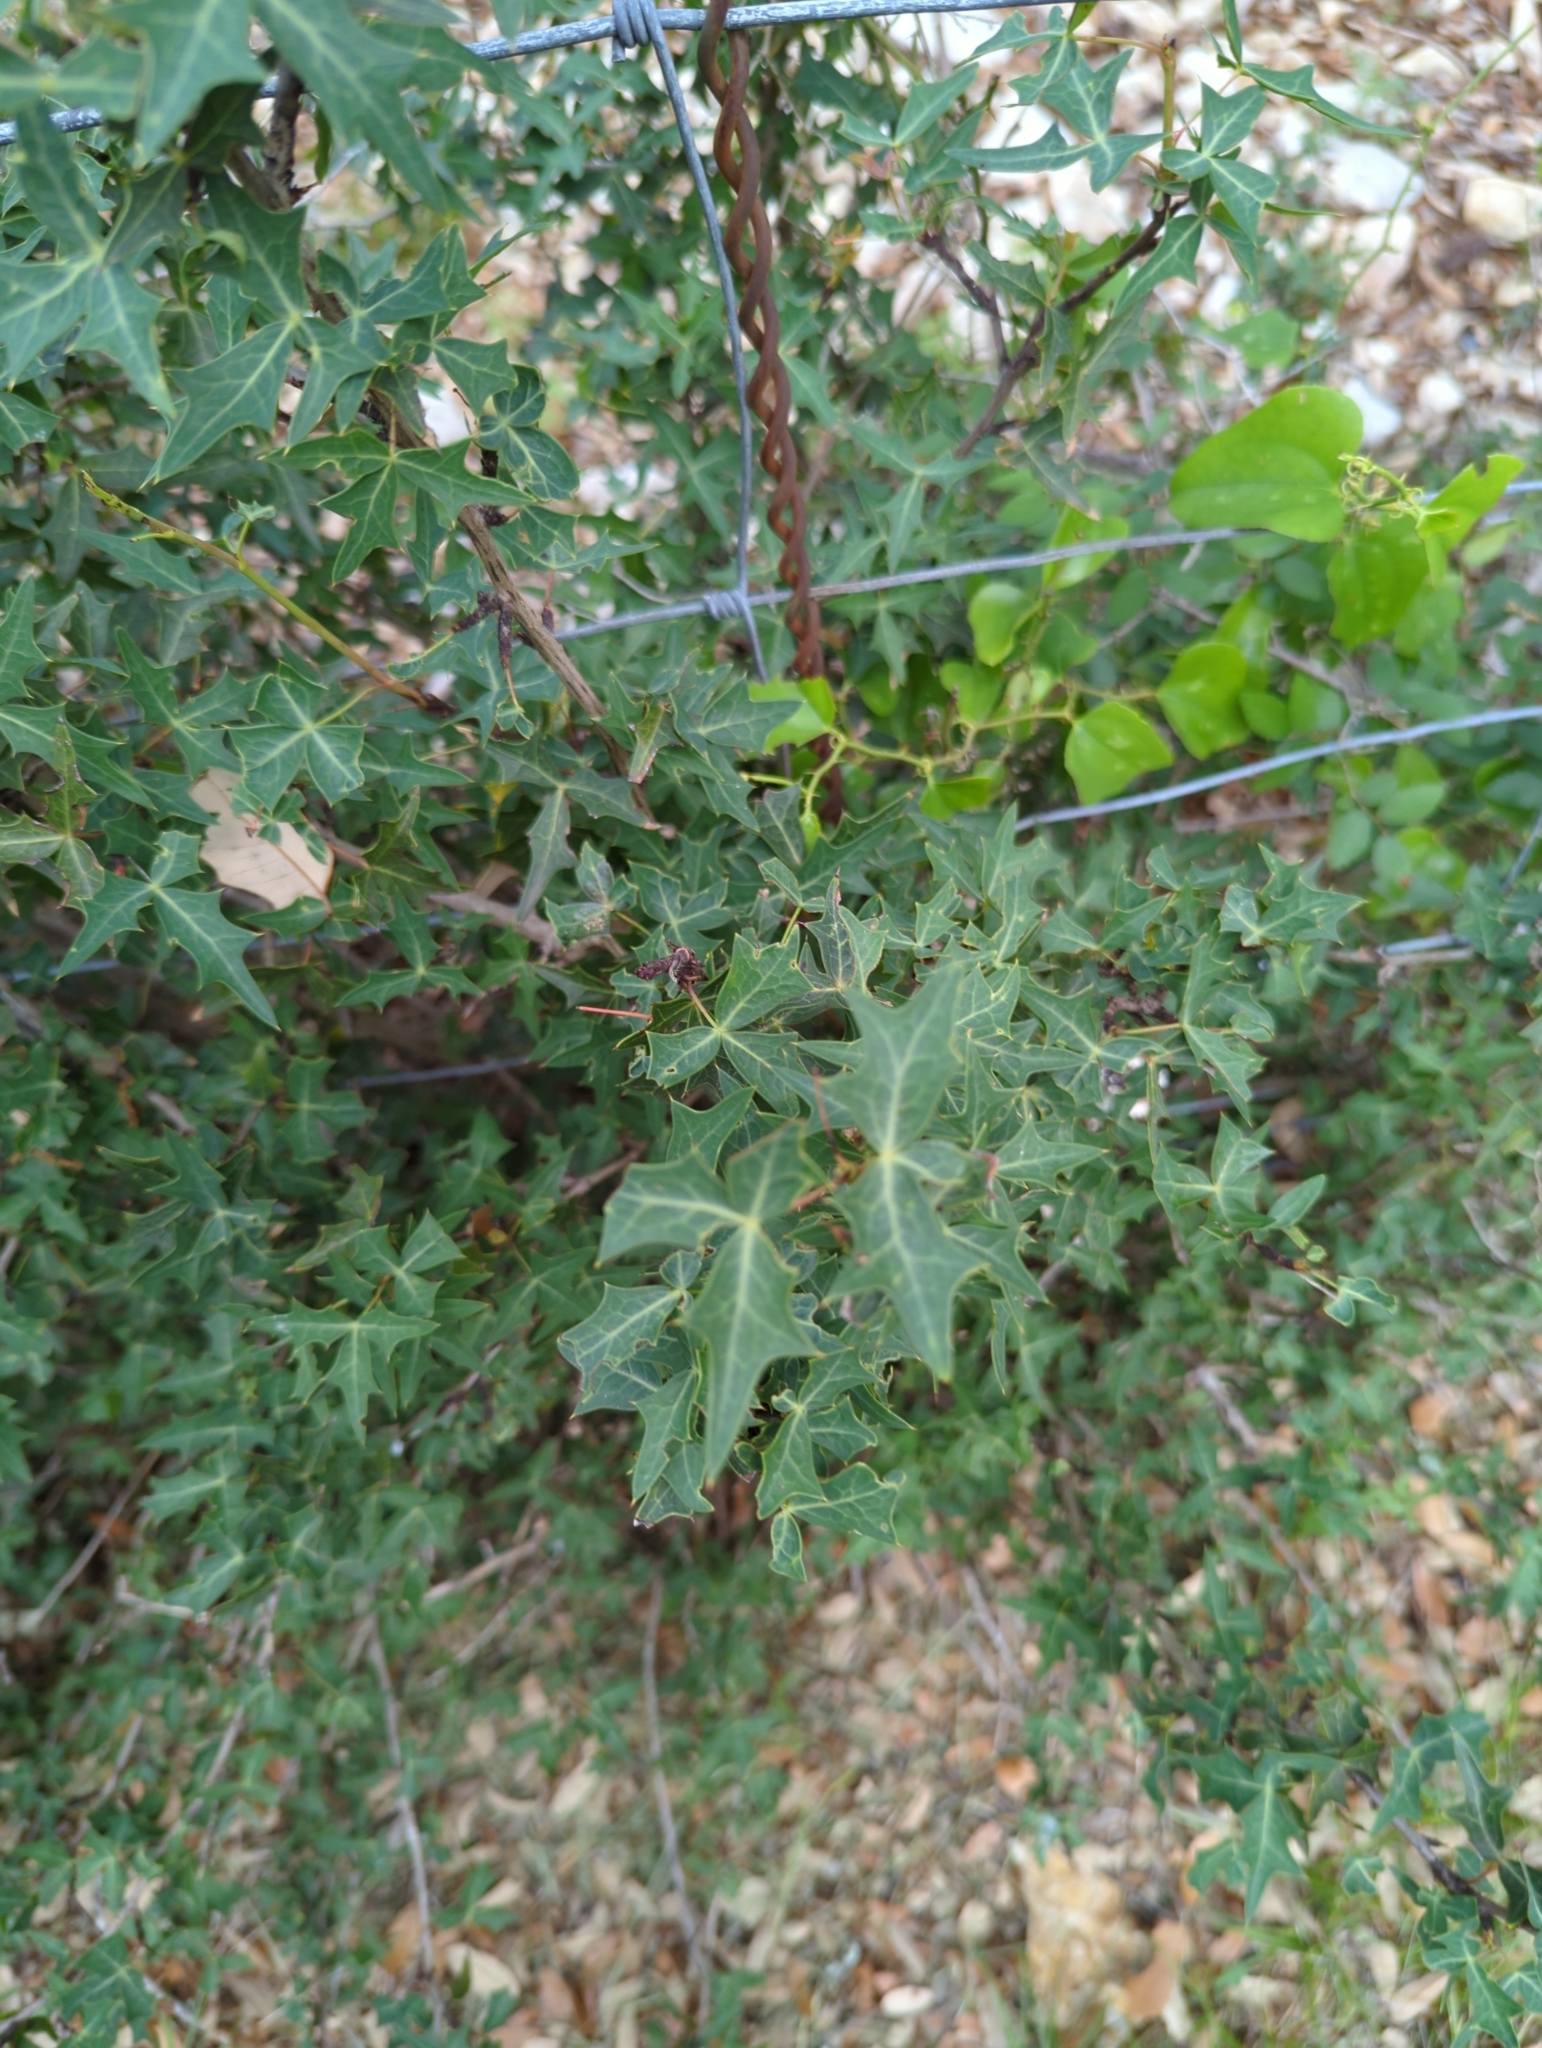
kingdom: Plantae
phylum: Tracheophyta
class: Magnoliopsida
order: Ranunculales
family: Berberidaceae
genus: Alloberberis
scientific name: Alloberberis trifoliolata
